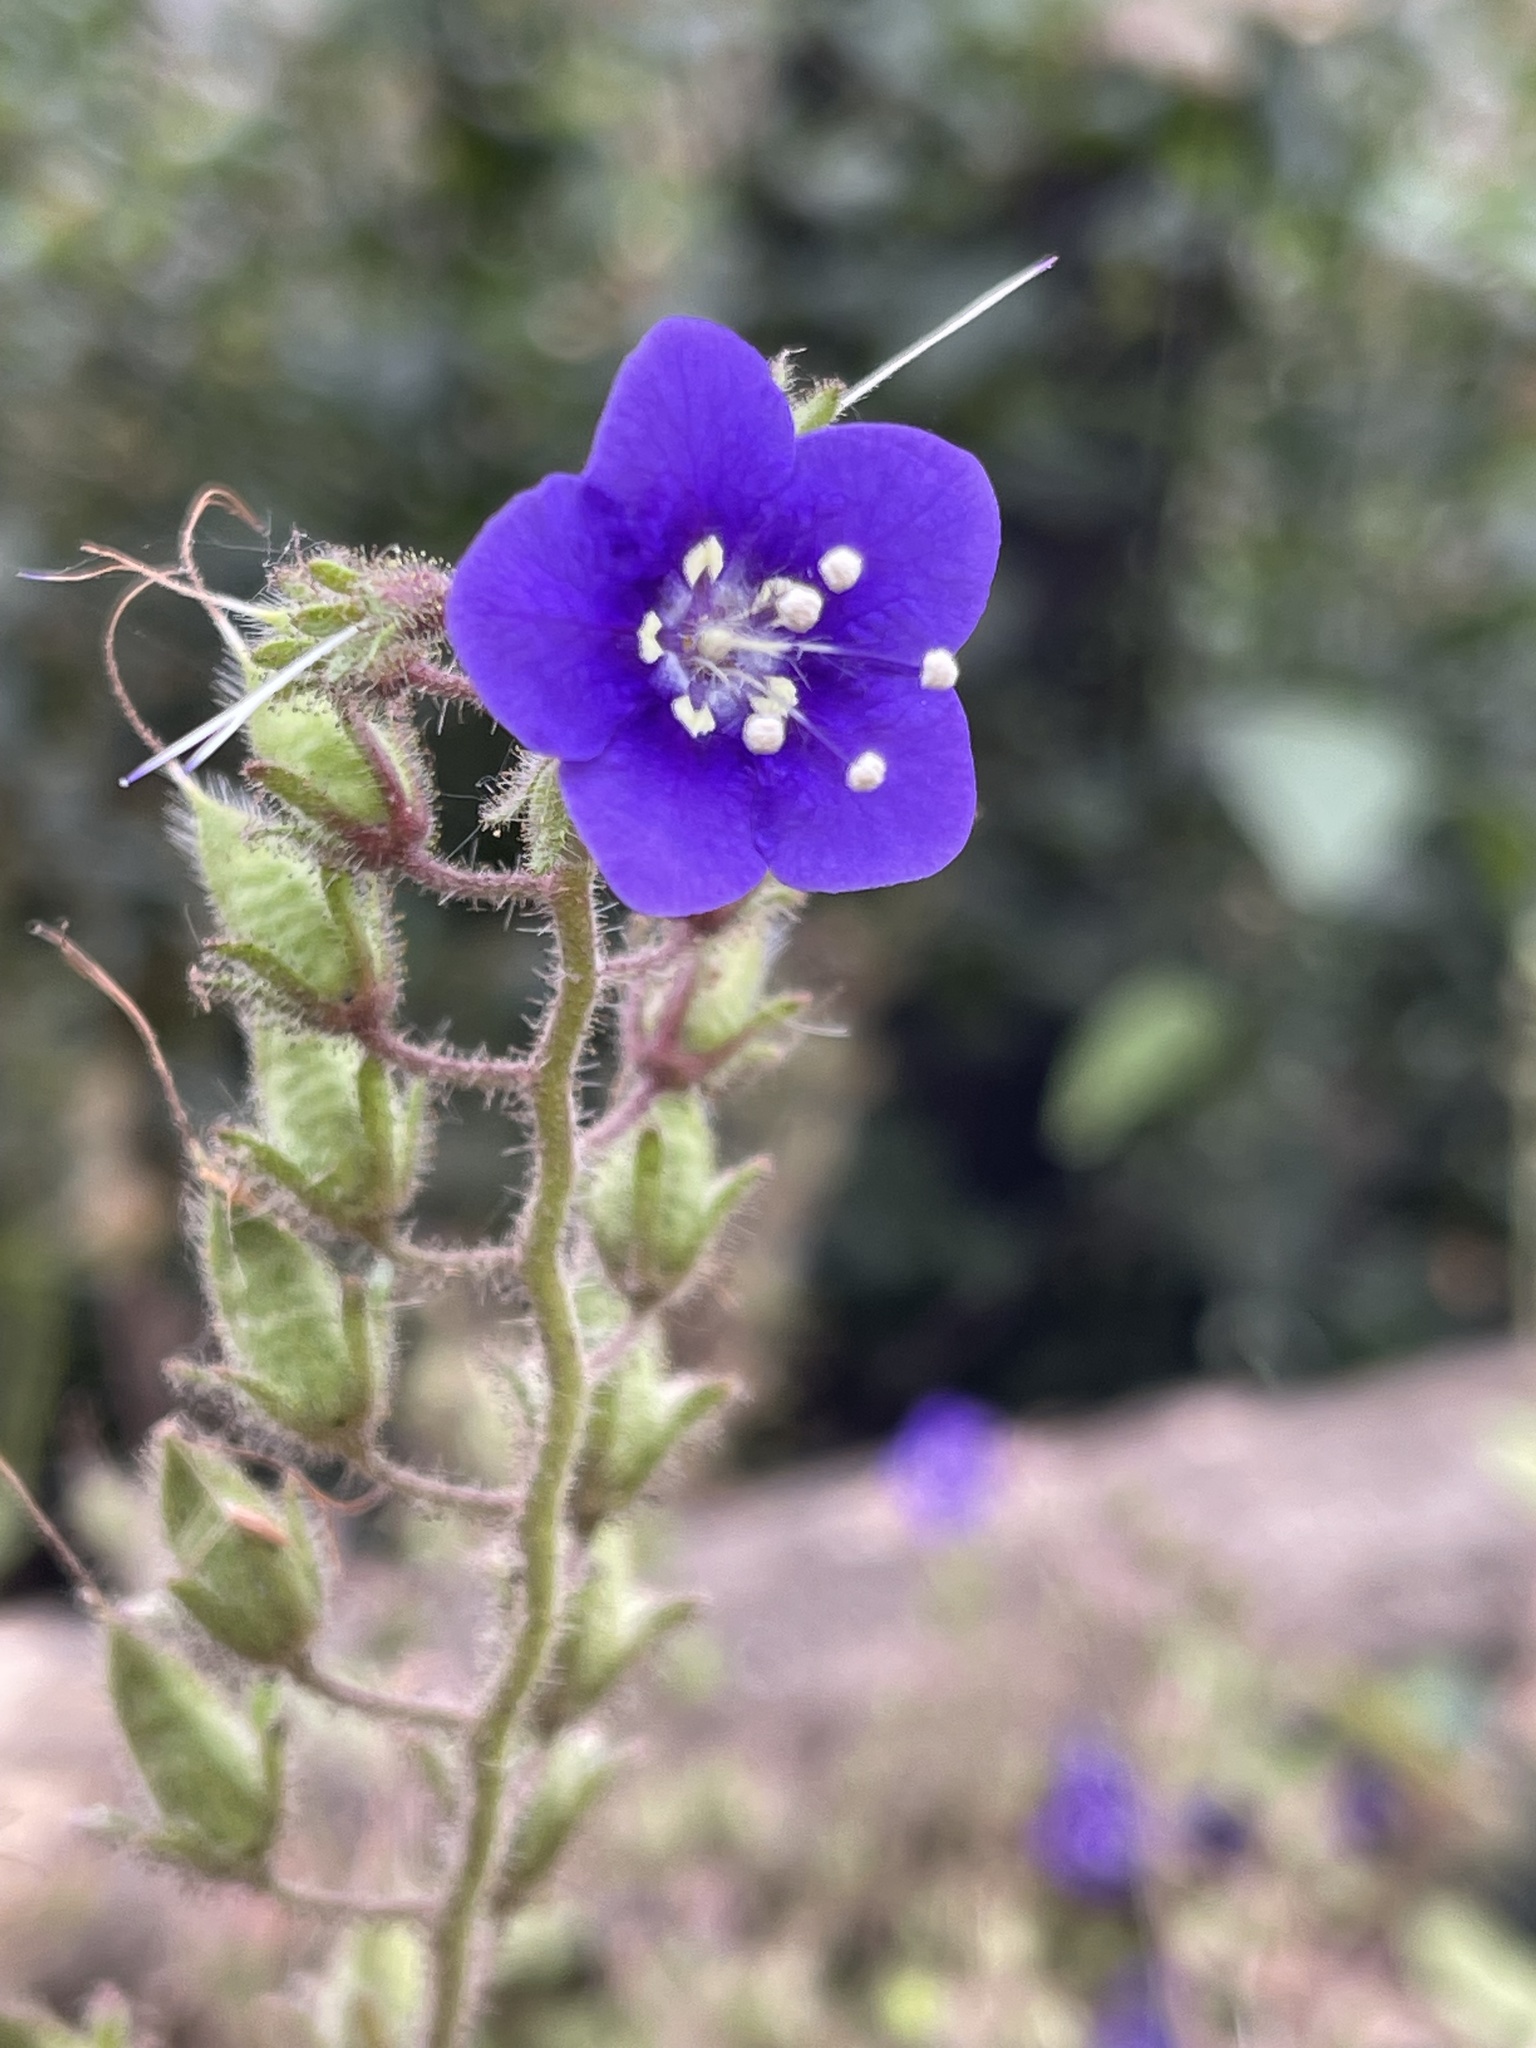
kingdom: Plantae
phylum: Tracheophyta
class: Magnoliopsida
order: Boraginales
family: Hydrophyllaceae
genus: Phacelia
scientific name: Phacelia parryi
